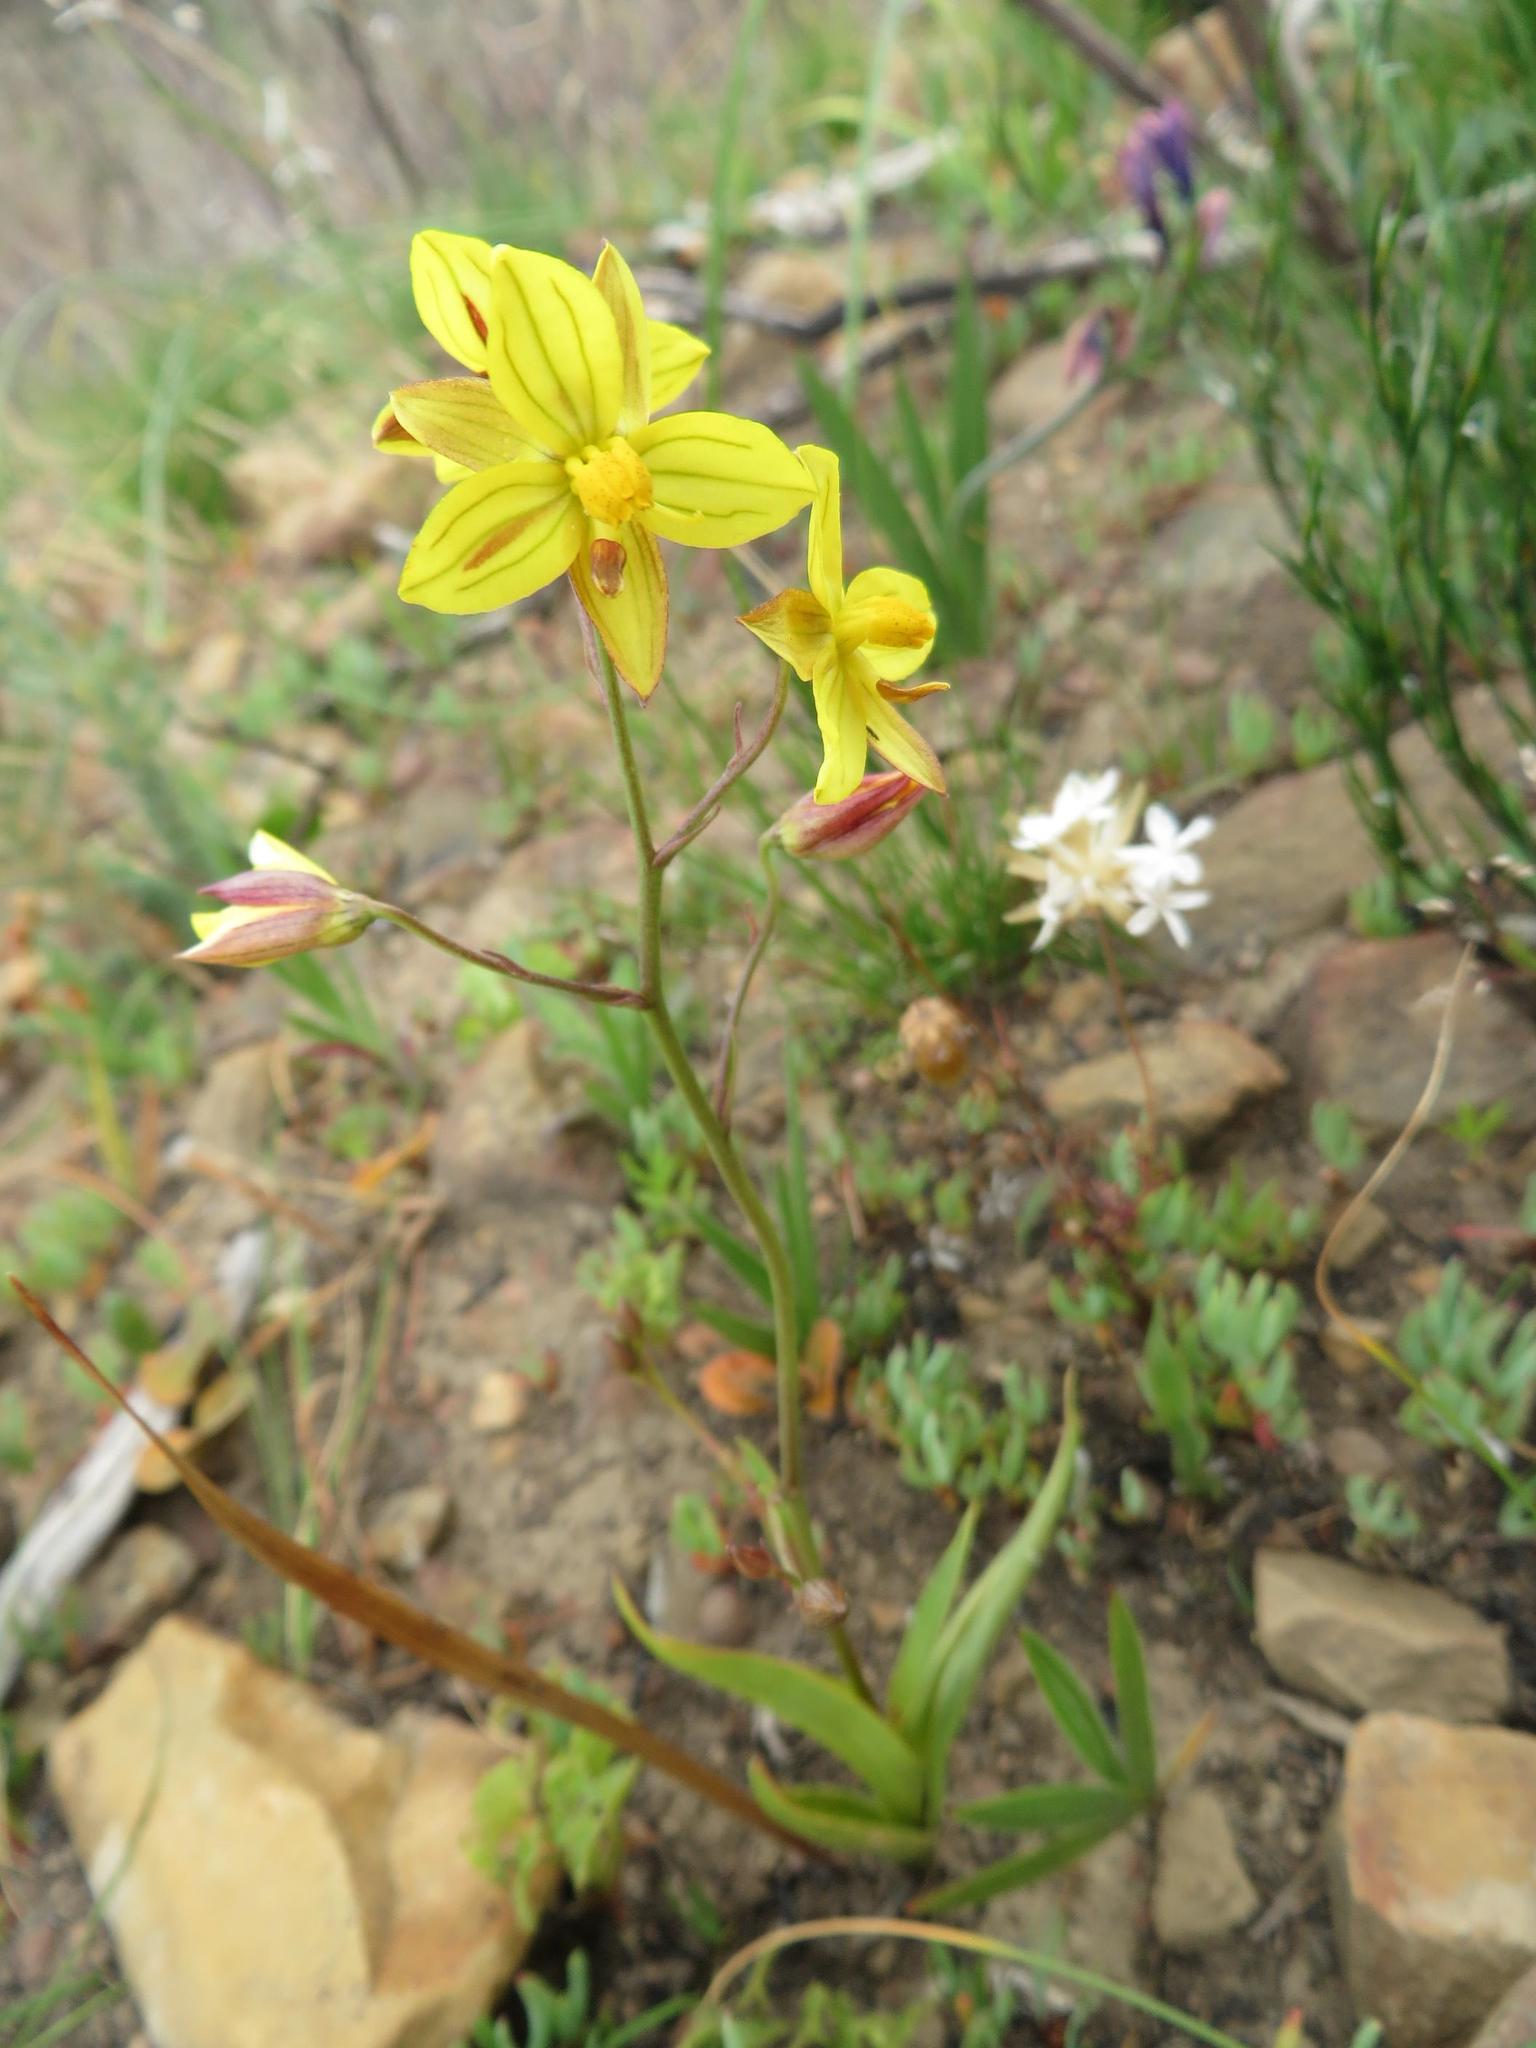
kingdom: Plantae
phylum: Tracheophyta
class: Liliopsida
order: Asparagales
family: Tecophilaeaceae
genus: Cyanella
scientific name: Cyanella lutea
